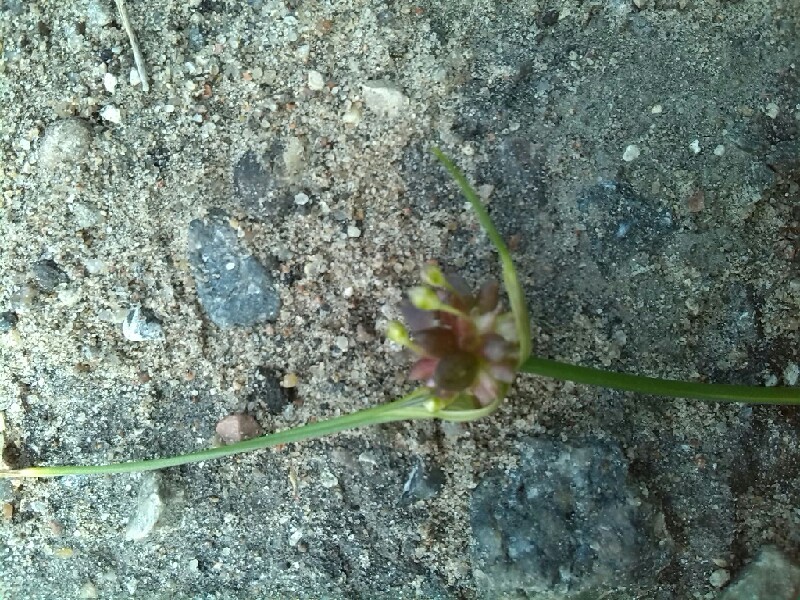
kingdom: Plantae
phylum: Tracheophyta
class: Liliopsida
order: Asparagales
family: Amaryllidaceae
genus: Allium
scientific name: Allium oleraceum
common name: Field garlic
